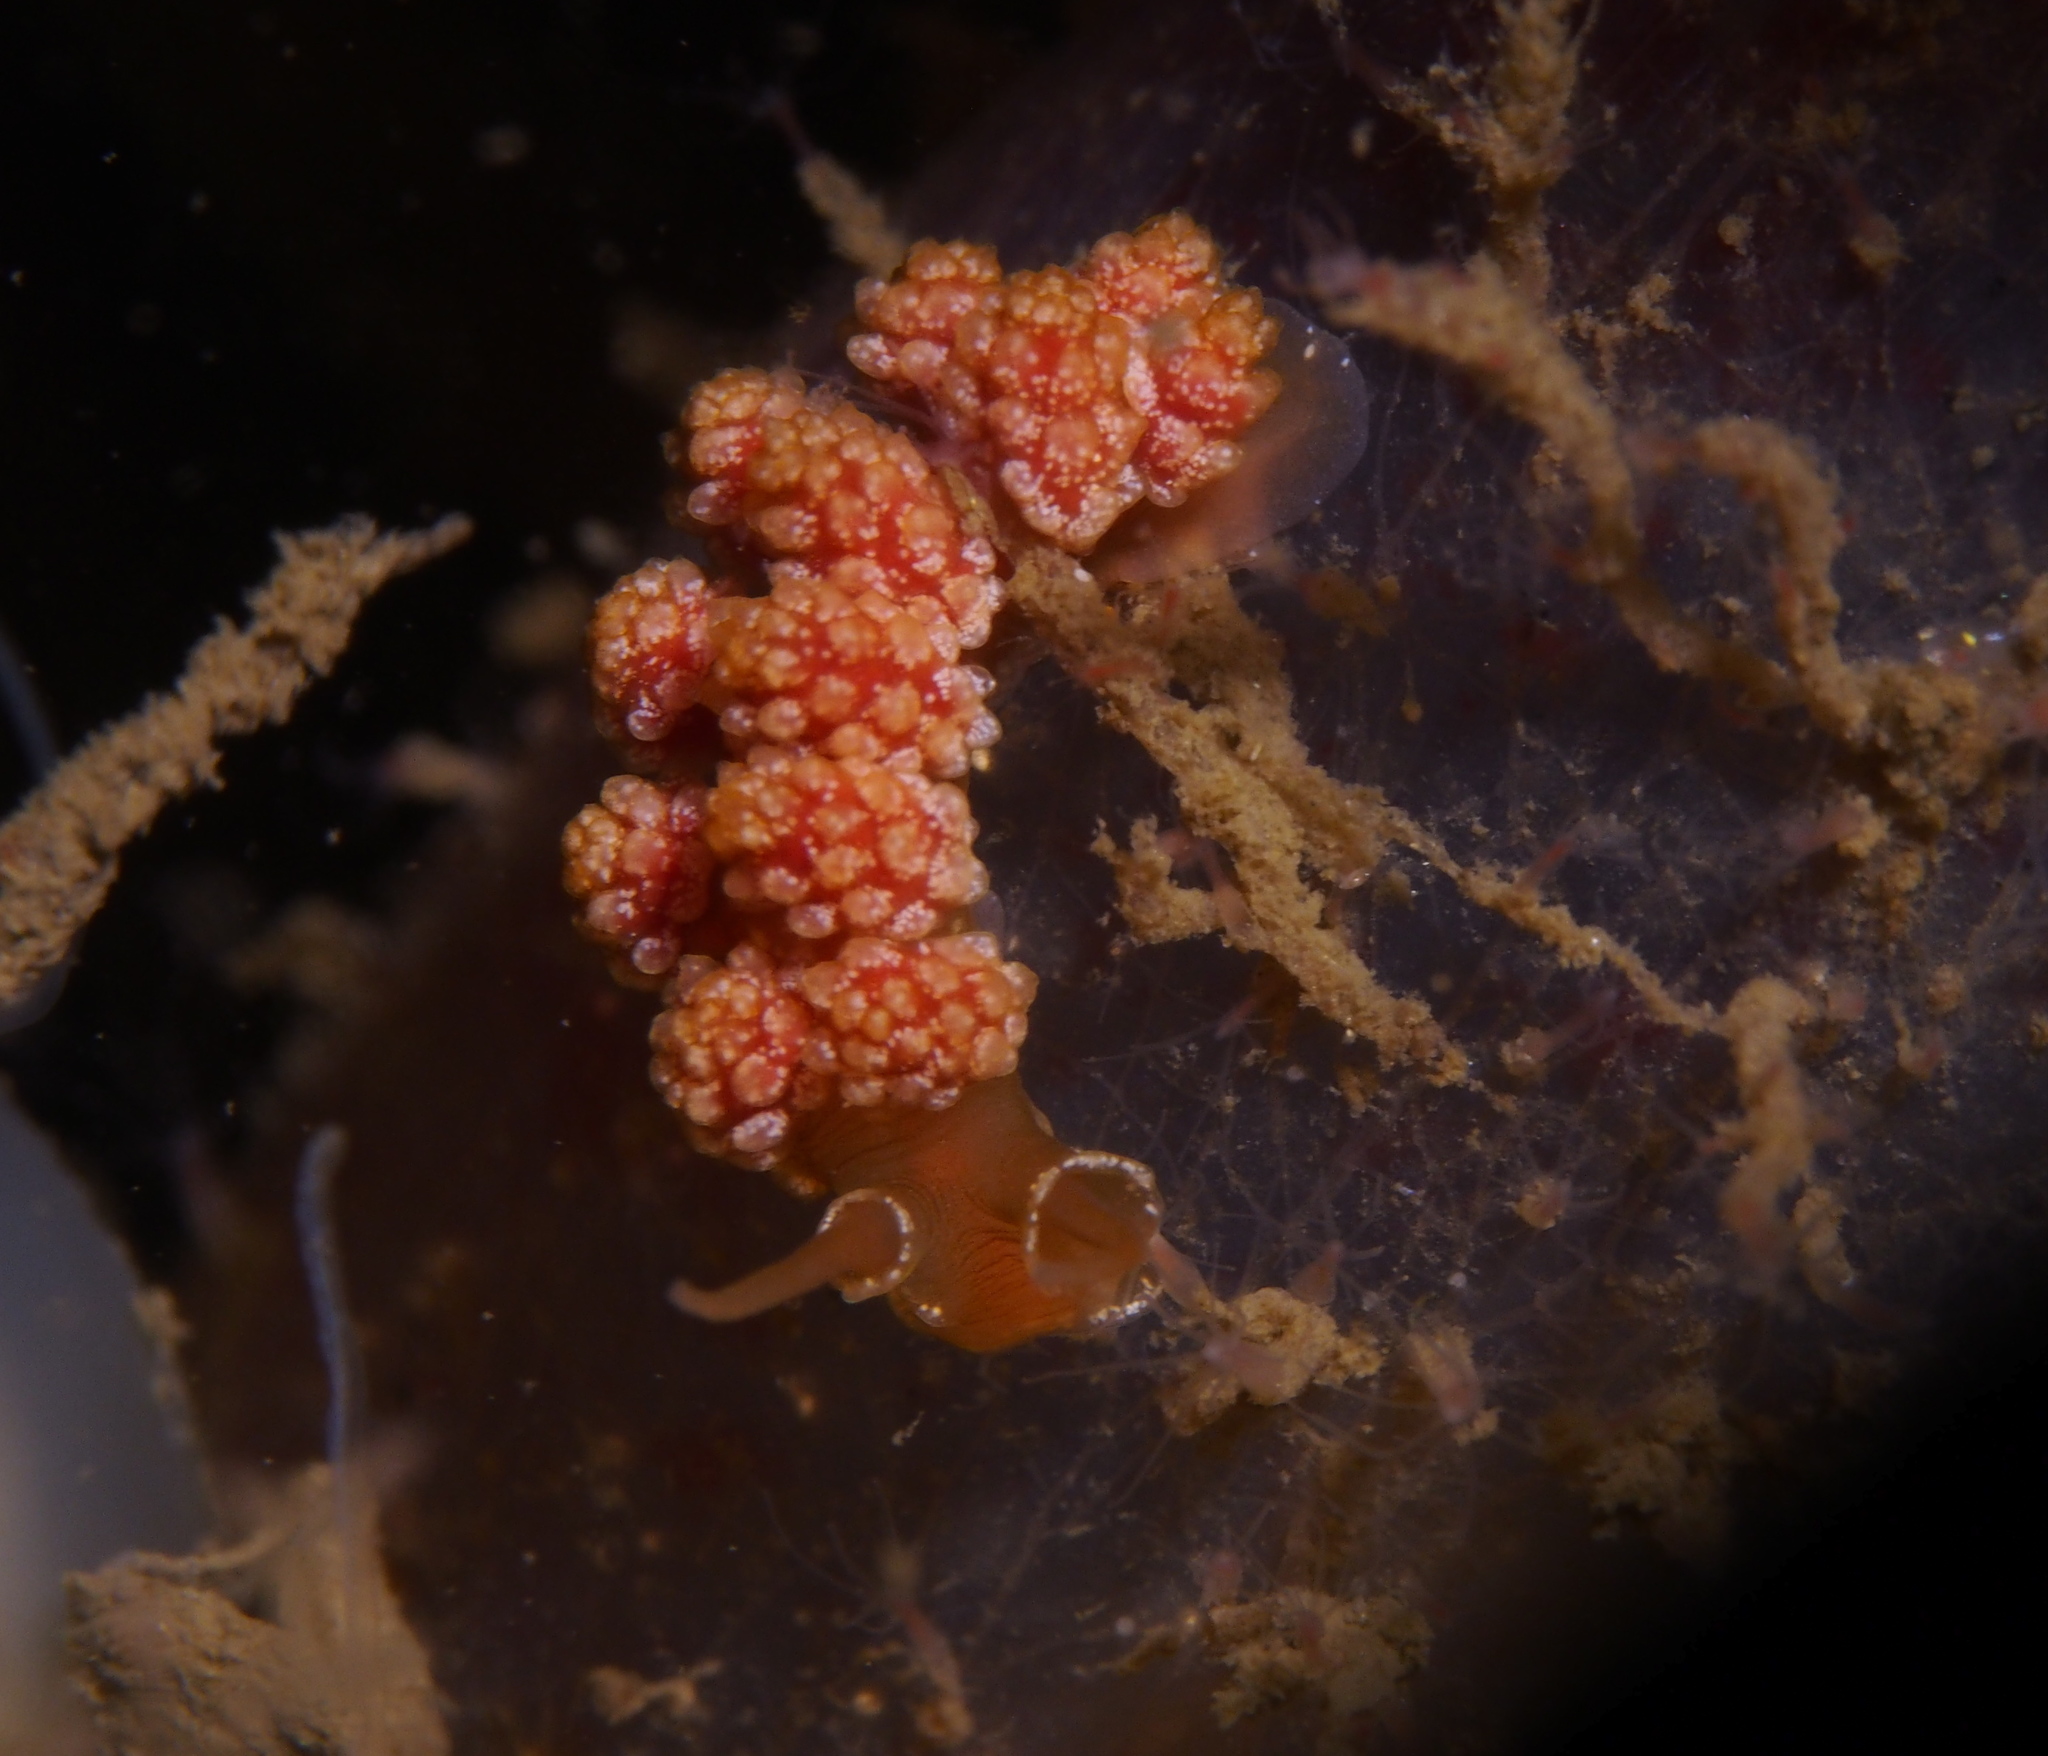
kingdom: Animalia
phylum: Mollusca
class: Gastropoda
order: Nudibranchia
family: Dotidae
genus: Doto
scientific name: Doto fragilis
